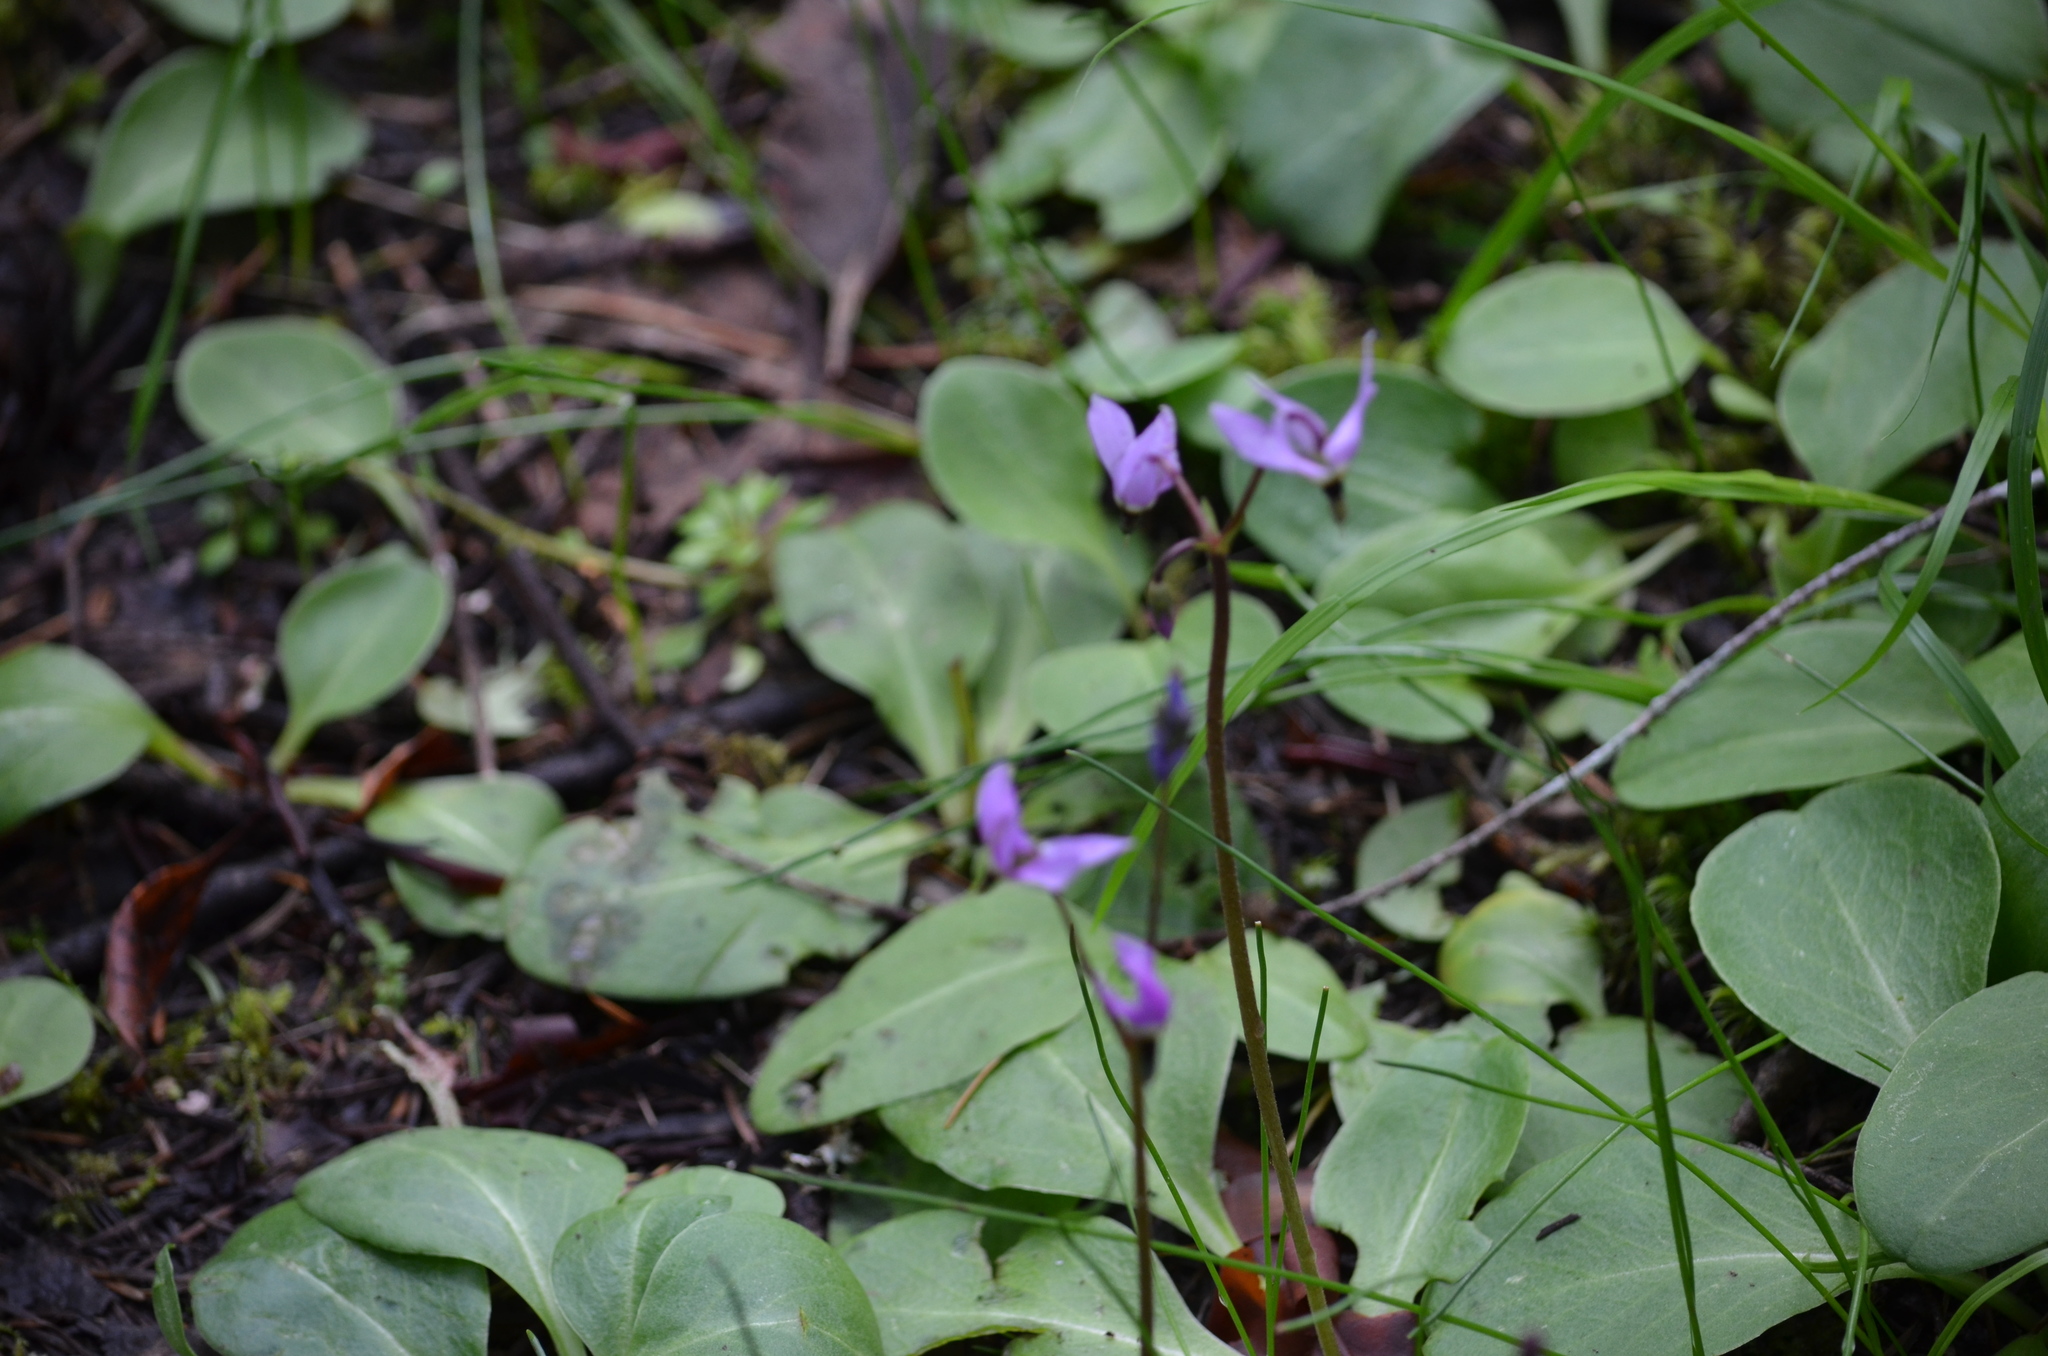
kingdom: Plantae
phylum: Tracheophyta
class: Magnoliopsida
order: Ericales
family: Primulaceae
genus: Dodecatheon
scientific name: Dodecatheon hendersonii
